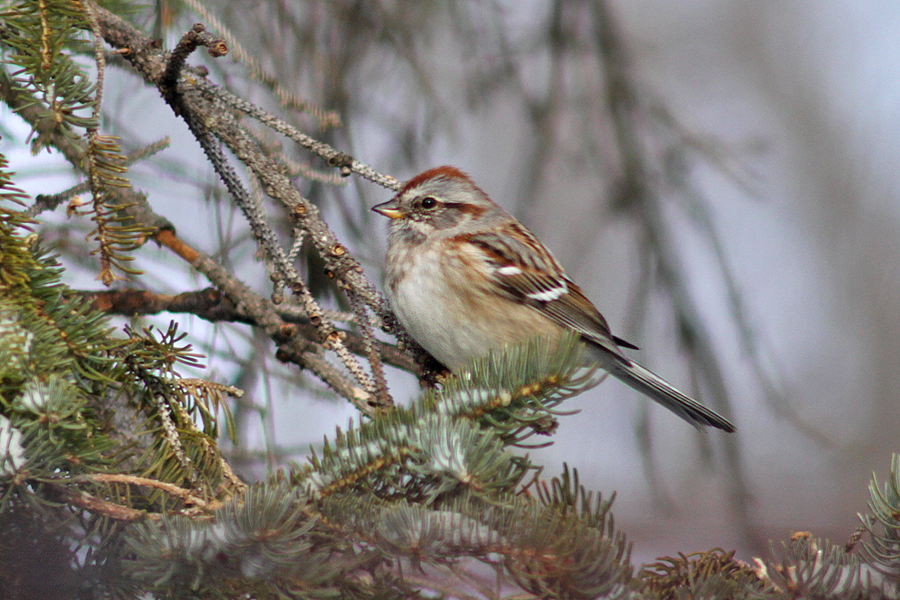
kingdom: Animalia
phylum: Chordata
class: Aves
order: Passeriformes
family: Passerellidae
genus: Spizelloides
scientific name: Spizelloides arborea
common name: American tree sparrow
